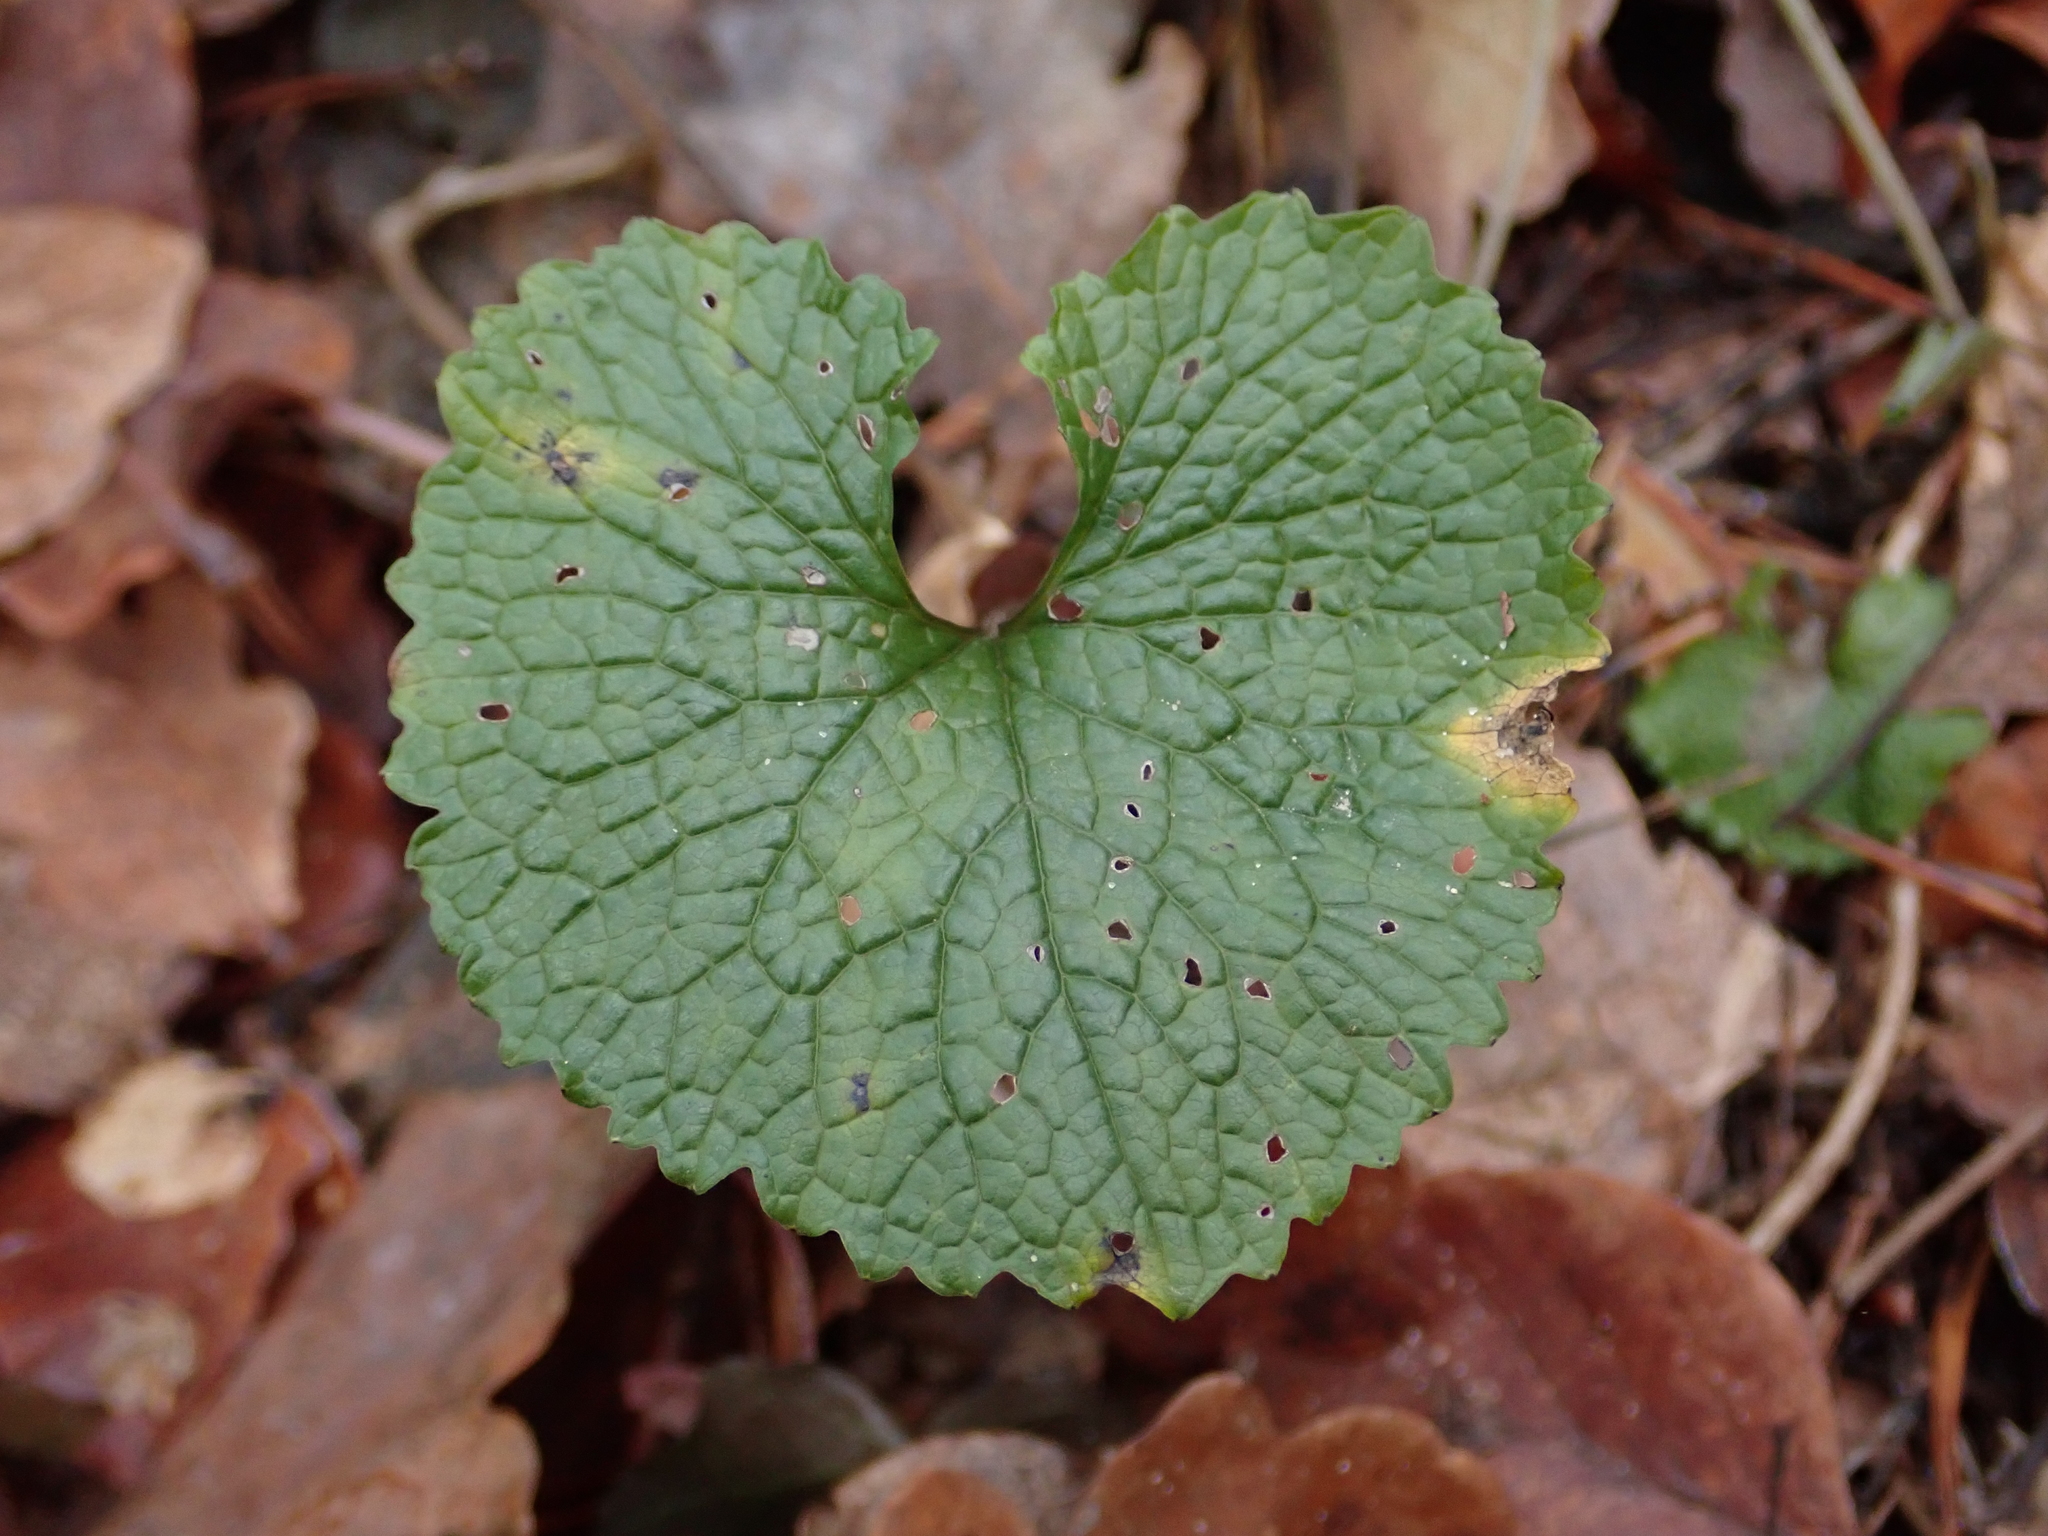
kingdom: Plantae
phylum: Tracheophyta
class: Magnoliopsida
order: Brassicales
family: Brassicaceae
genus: Alliaria
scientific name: Alliaria petiolata
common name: Garlic mustard
